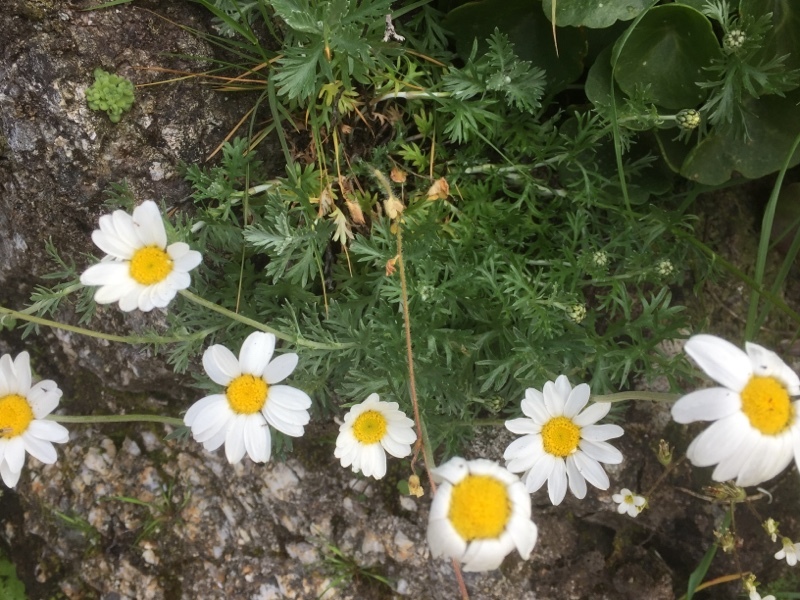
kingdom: Plantae
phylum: Tracheophyta
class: Magnoliopsida
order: Asterales
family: Asteraceae
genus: Phalacrocarpum
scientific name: Phalacrocarpum oppositifolium
